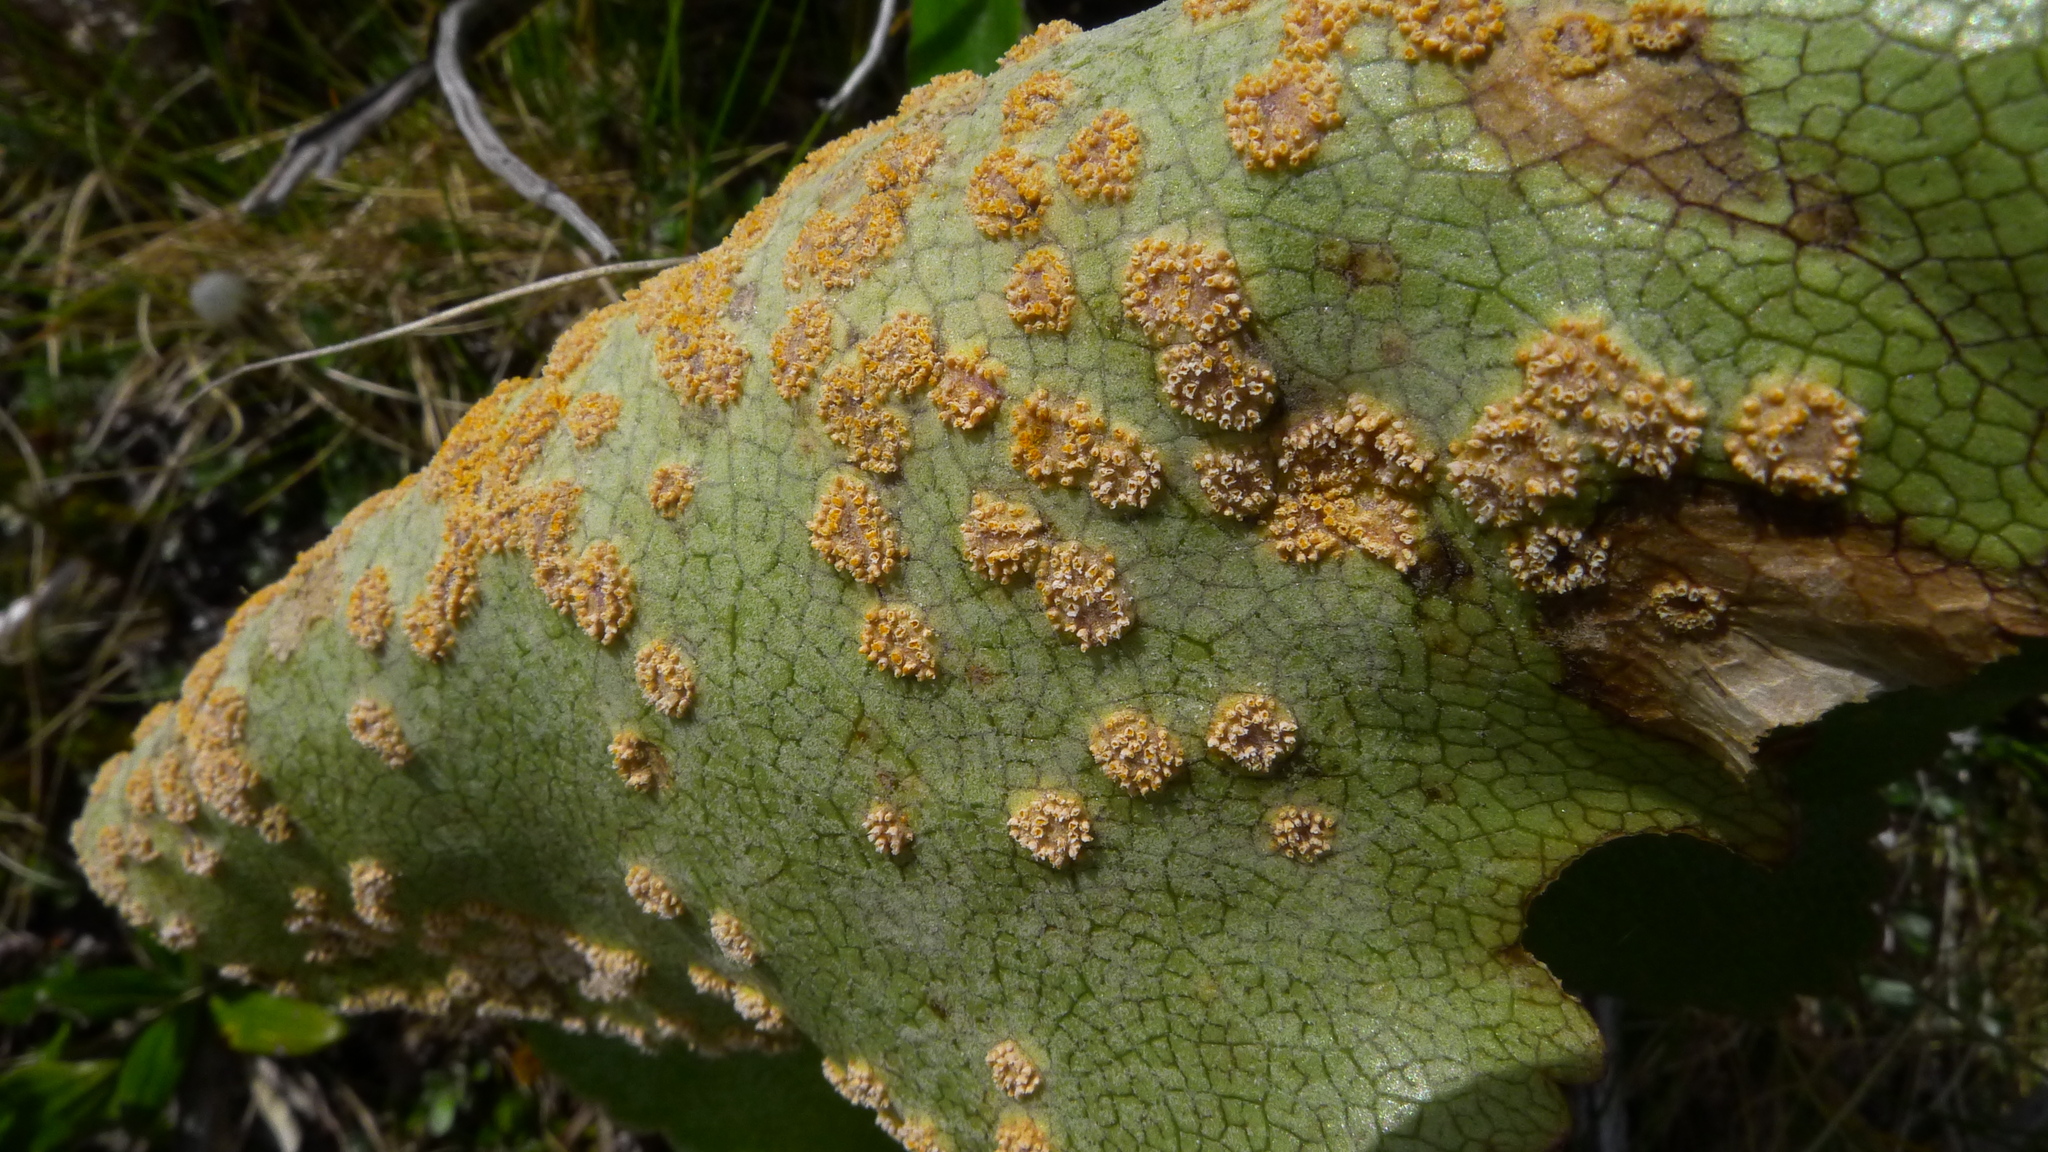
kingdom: Fungi
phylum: Basidiomycota
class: Pucciniomycetes
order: Pucciniales
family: Pucciniaceae
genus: Aecidium
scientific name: Aecidium ranunculi-lyallii
